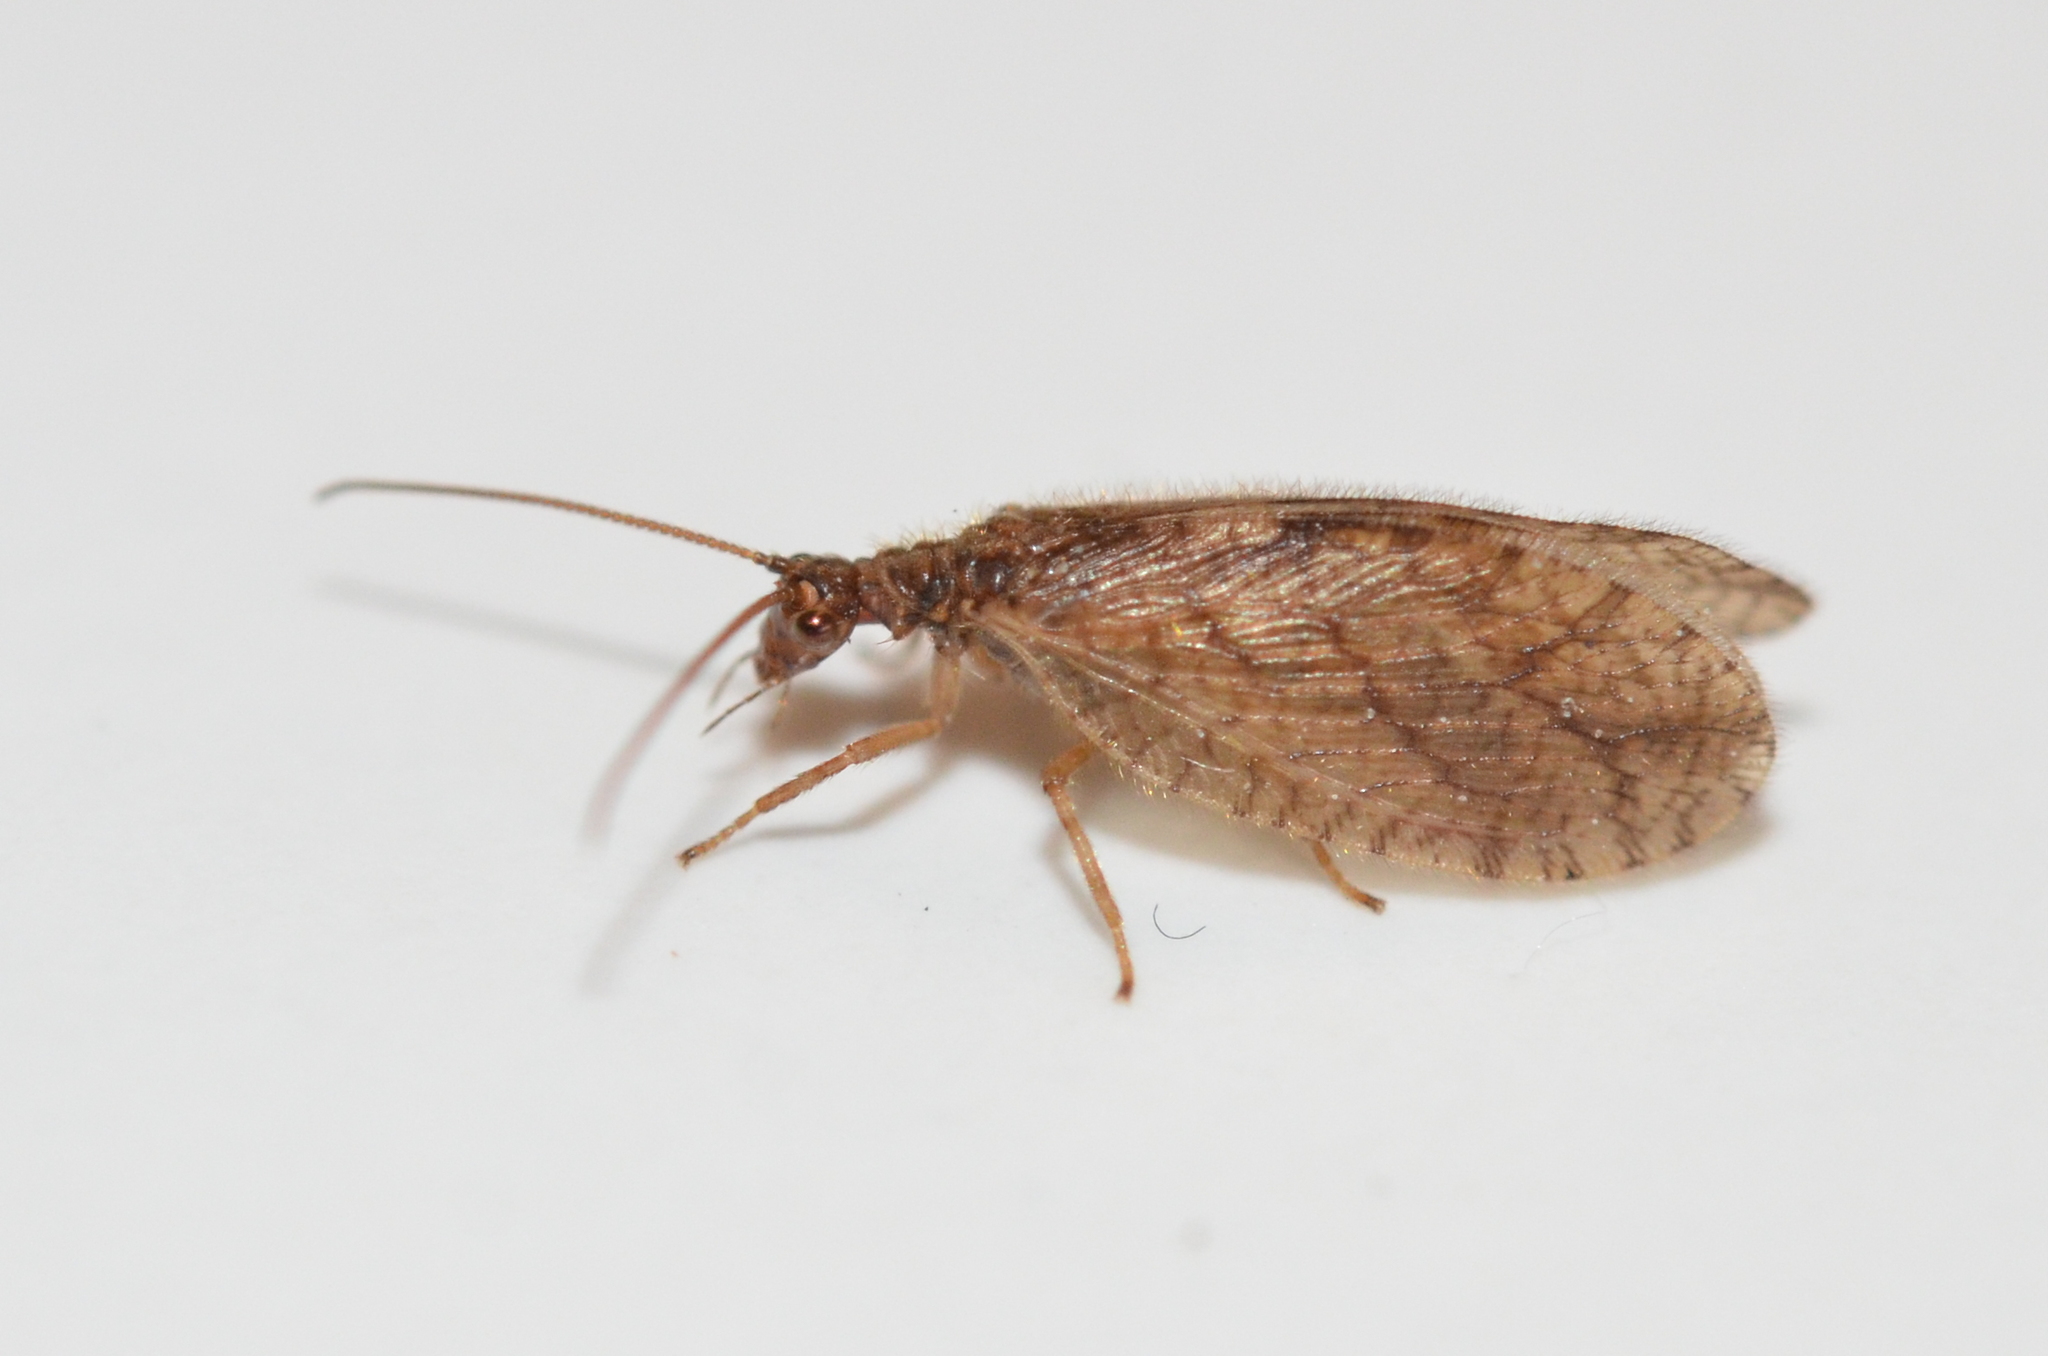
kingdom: Animalia
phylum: Arthropoda
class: Insecta
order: Neuroptera
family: Hemerobiidae
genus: Micromus
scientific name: Micromus angulatus
